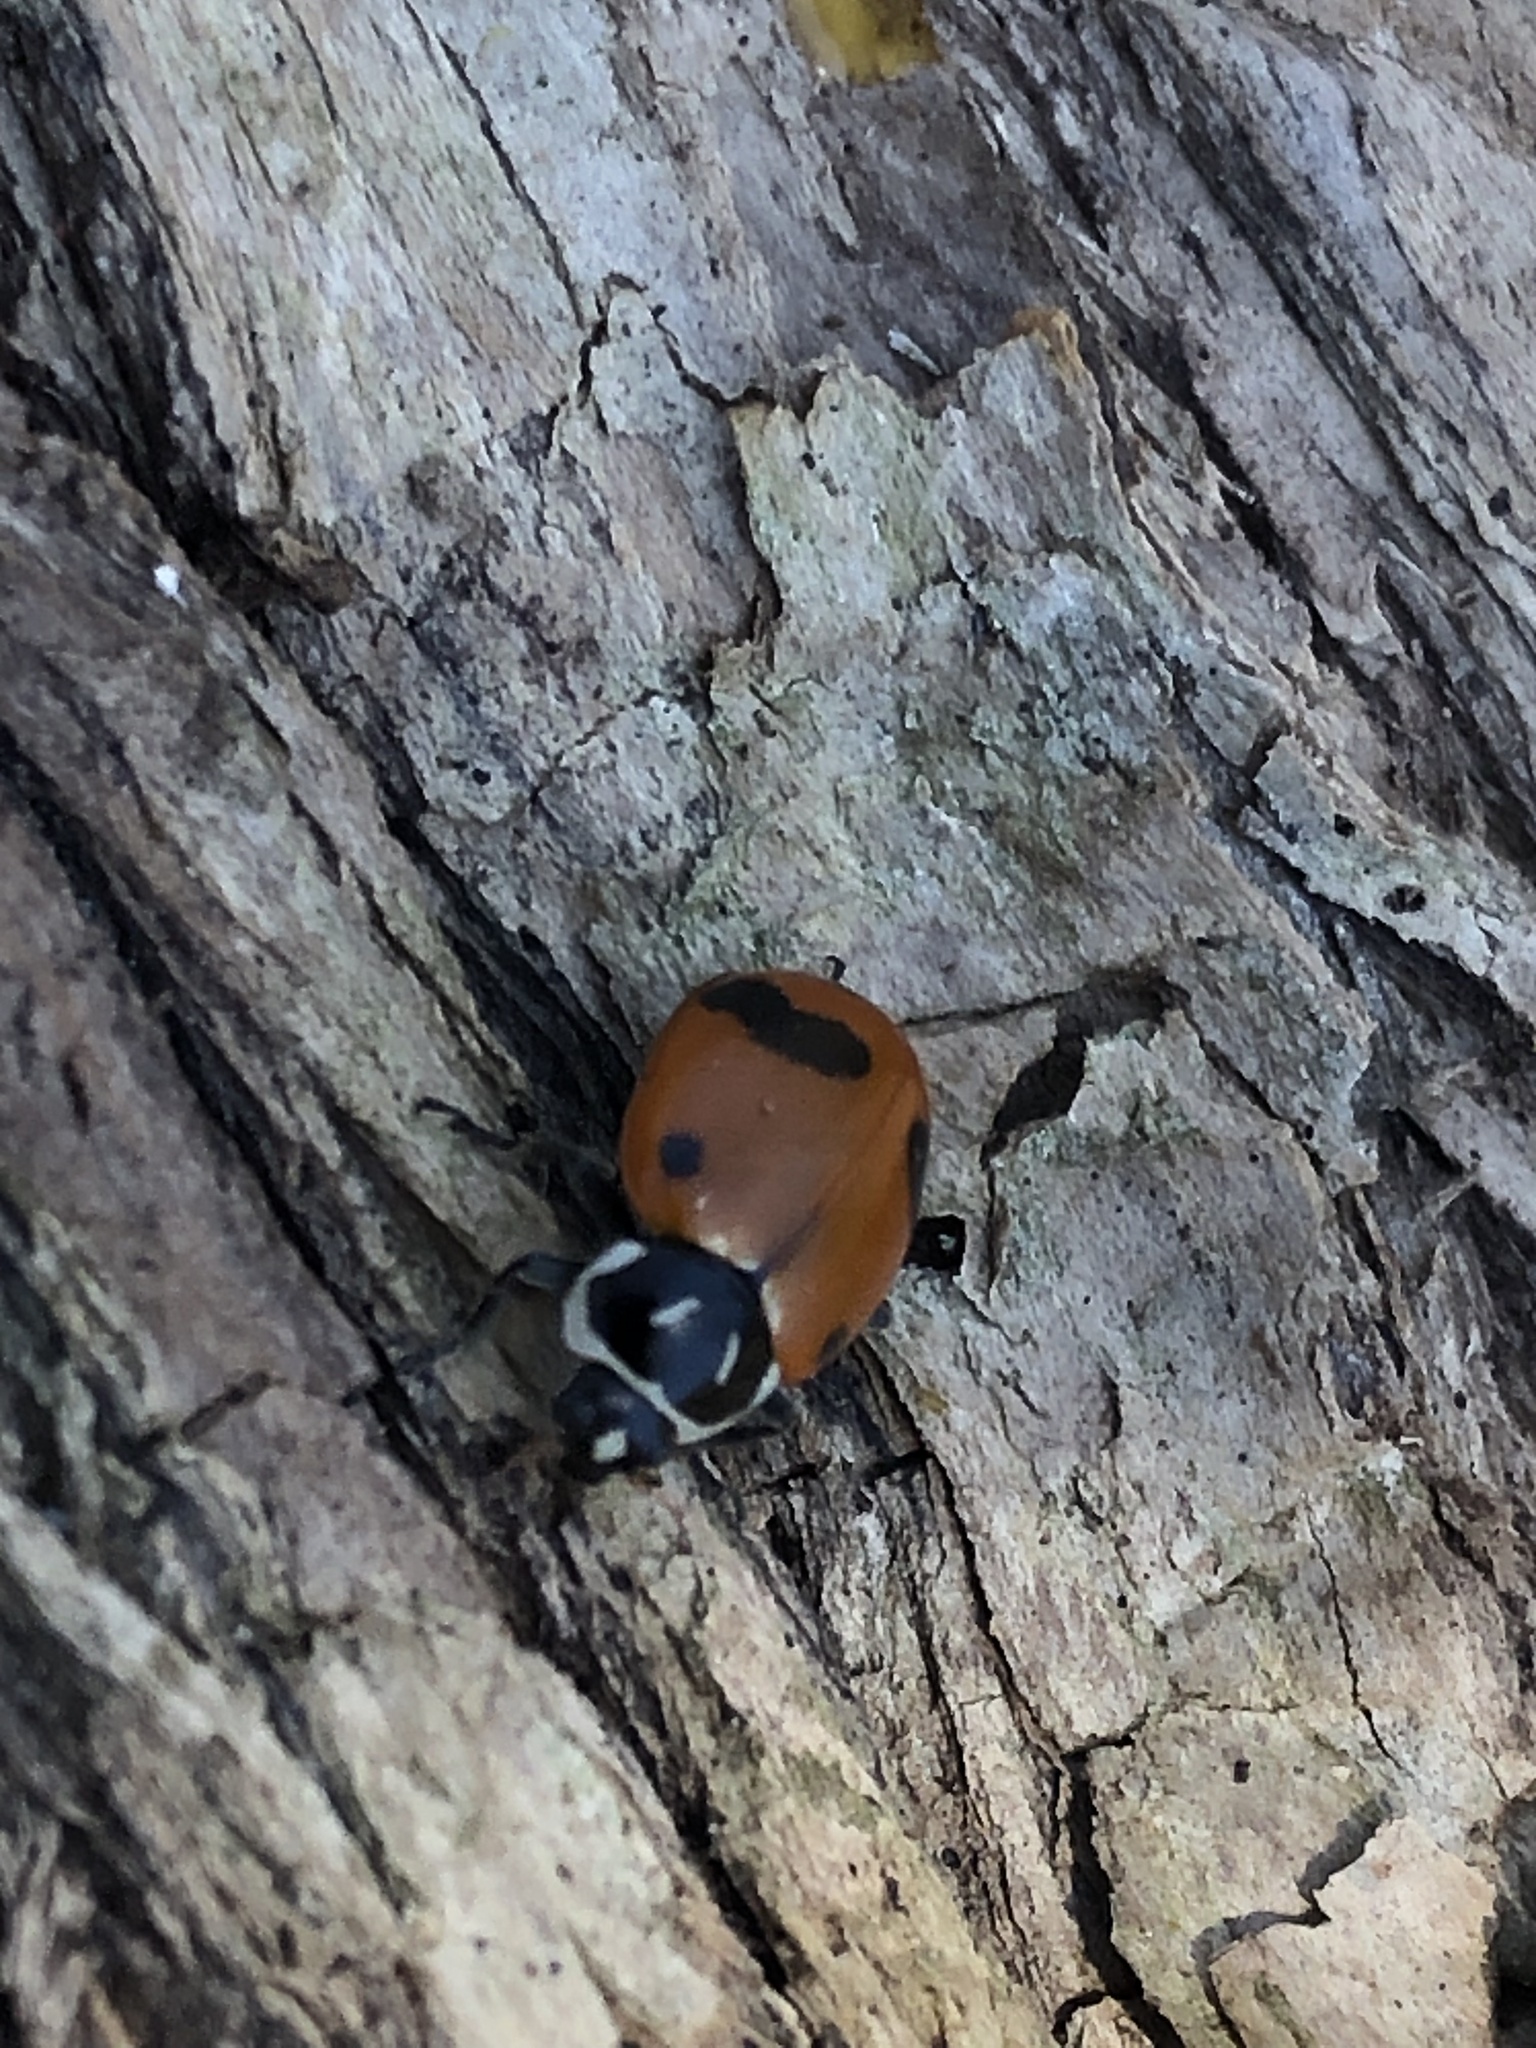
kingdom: Animalia
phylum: Arthropoda
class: Insecta
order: Coleoptera
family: Coccinellidae
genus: Hippodamia
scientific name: Hippodamia glacialis
